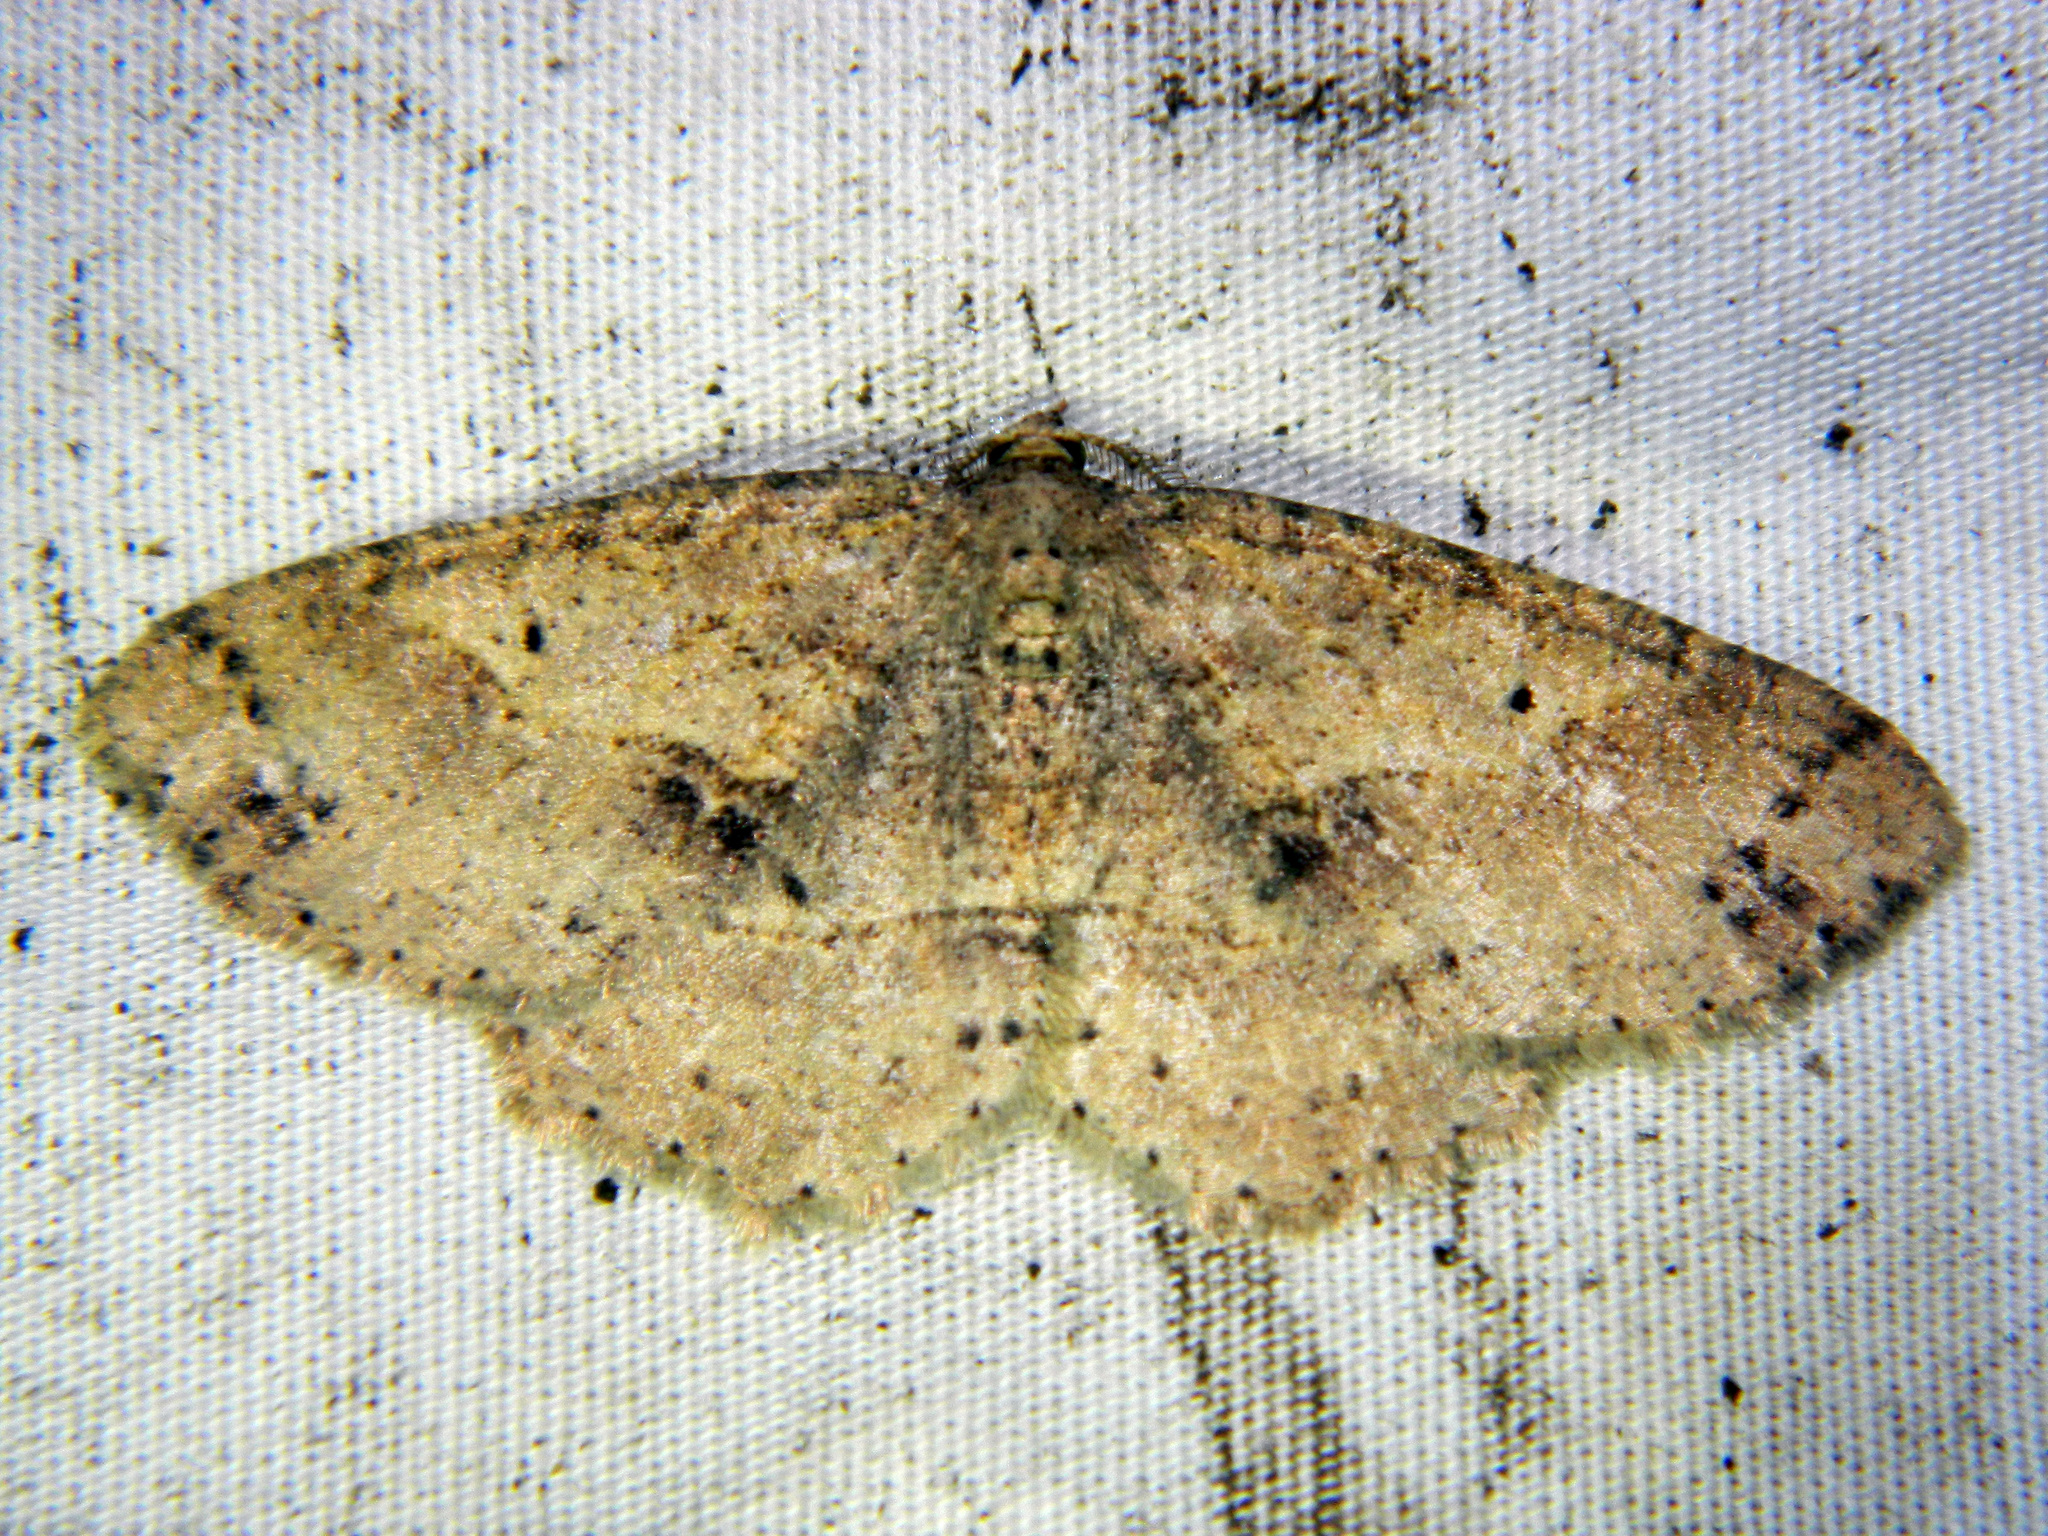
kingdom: Animalia
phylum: Arthropoda
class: Insecta
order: Lepidoptera
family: Geometridae
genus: Melanolophia
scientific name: Melanolophia signataria
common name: Signate melanolophia
